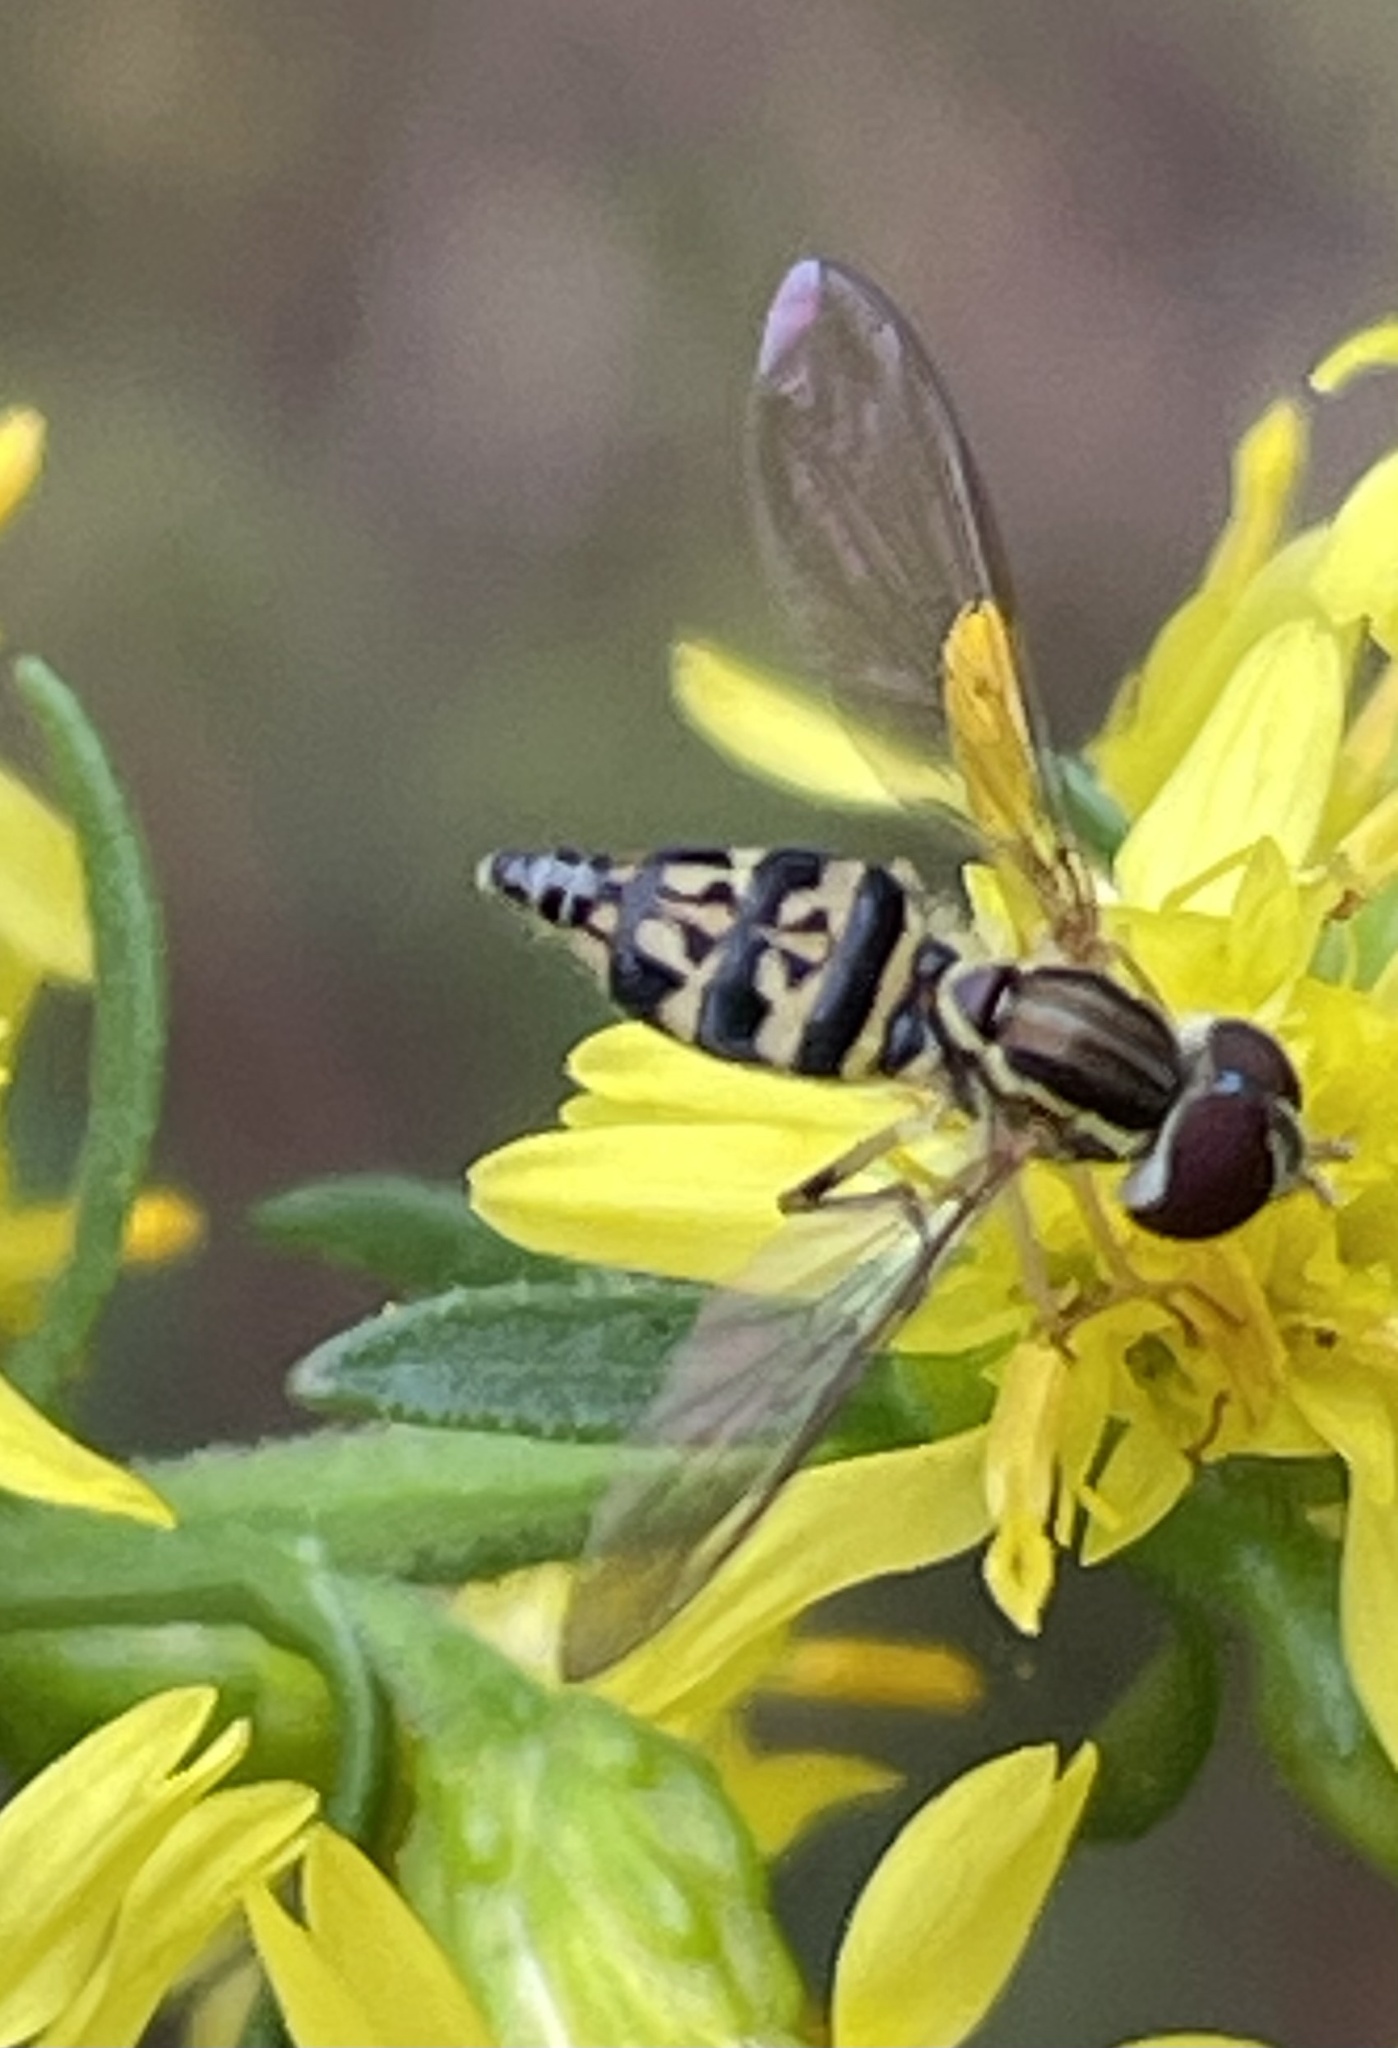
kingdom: Animalia
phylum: Arthropoda
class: Insecta
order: Diptera
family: Syrphidae
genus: Toxomerus
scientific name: Toxomerus geminatus
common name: Eastern calligrapher
